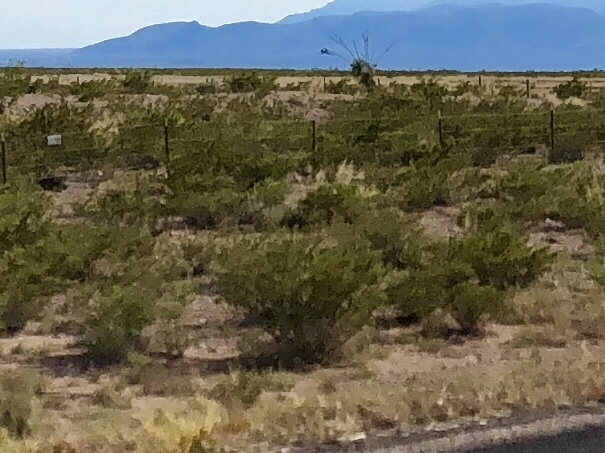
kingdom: Plantae
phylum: Tracheophyta
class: Magnoliopsida
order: Zygophyllales
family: Zygophyllaceae
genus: Larrea
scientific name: Larrea tridentata
